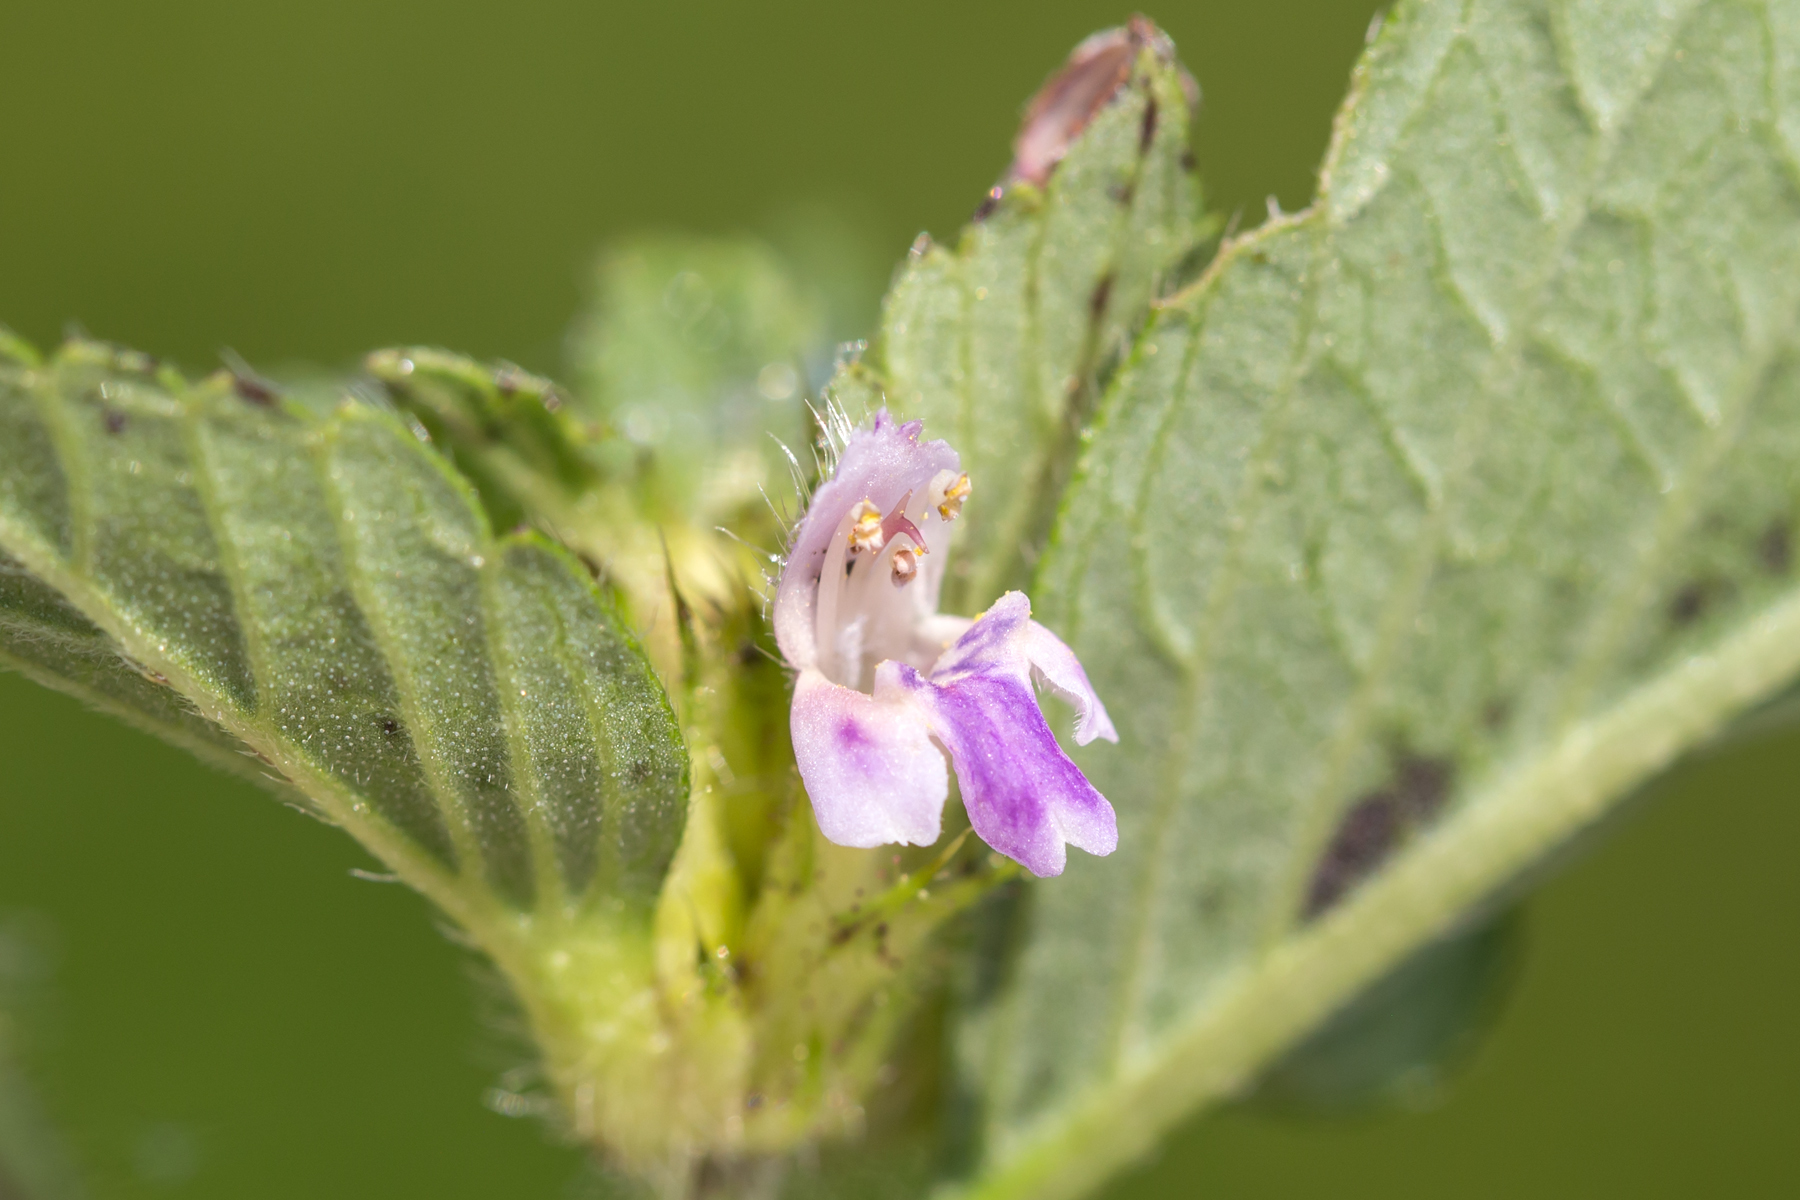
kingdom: Plantae
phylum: Tracheophyta
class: Magnoliopsida
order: Lamiales
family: Lamiaceae
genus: Galeopsis
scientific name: Galeopsis bifida
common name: Bifid hemp-nettle
